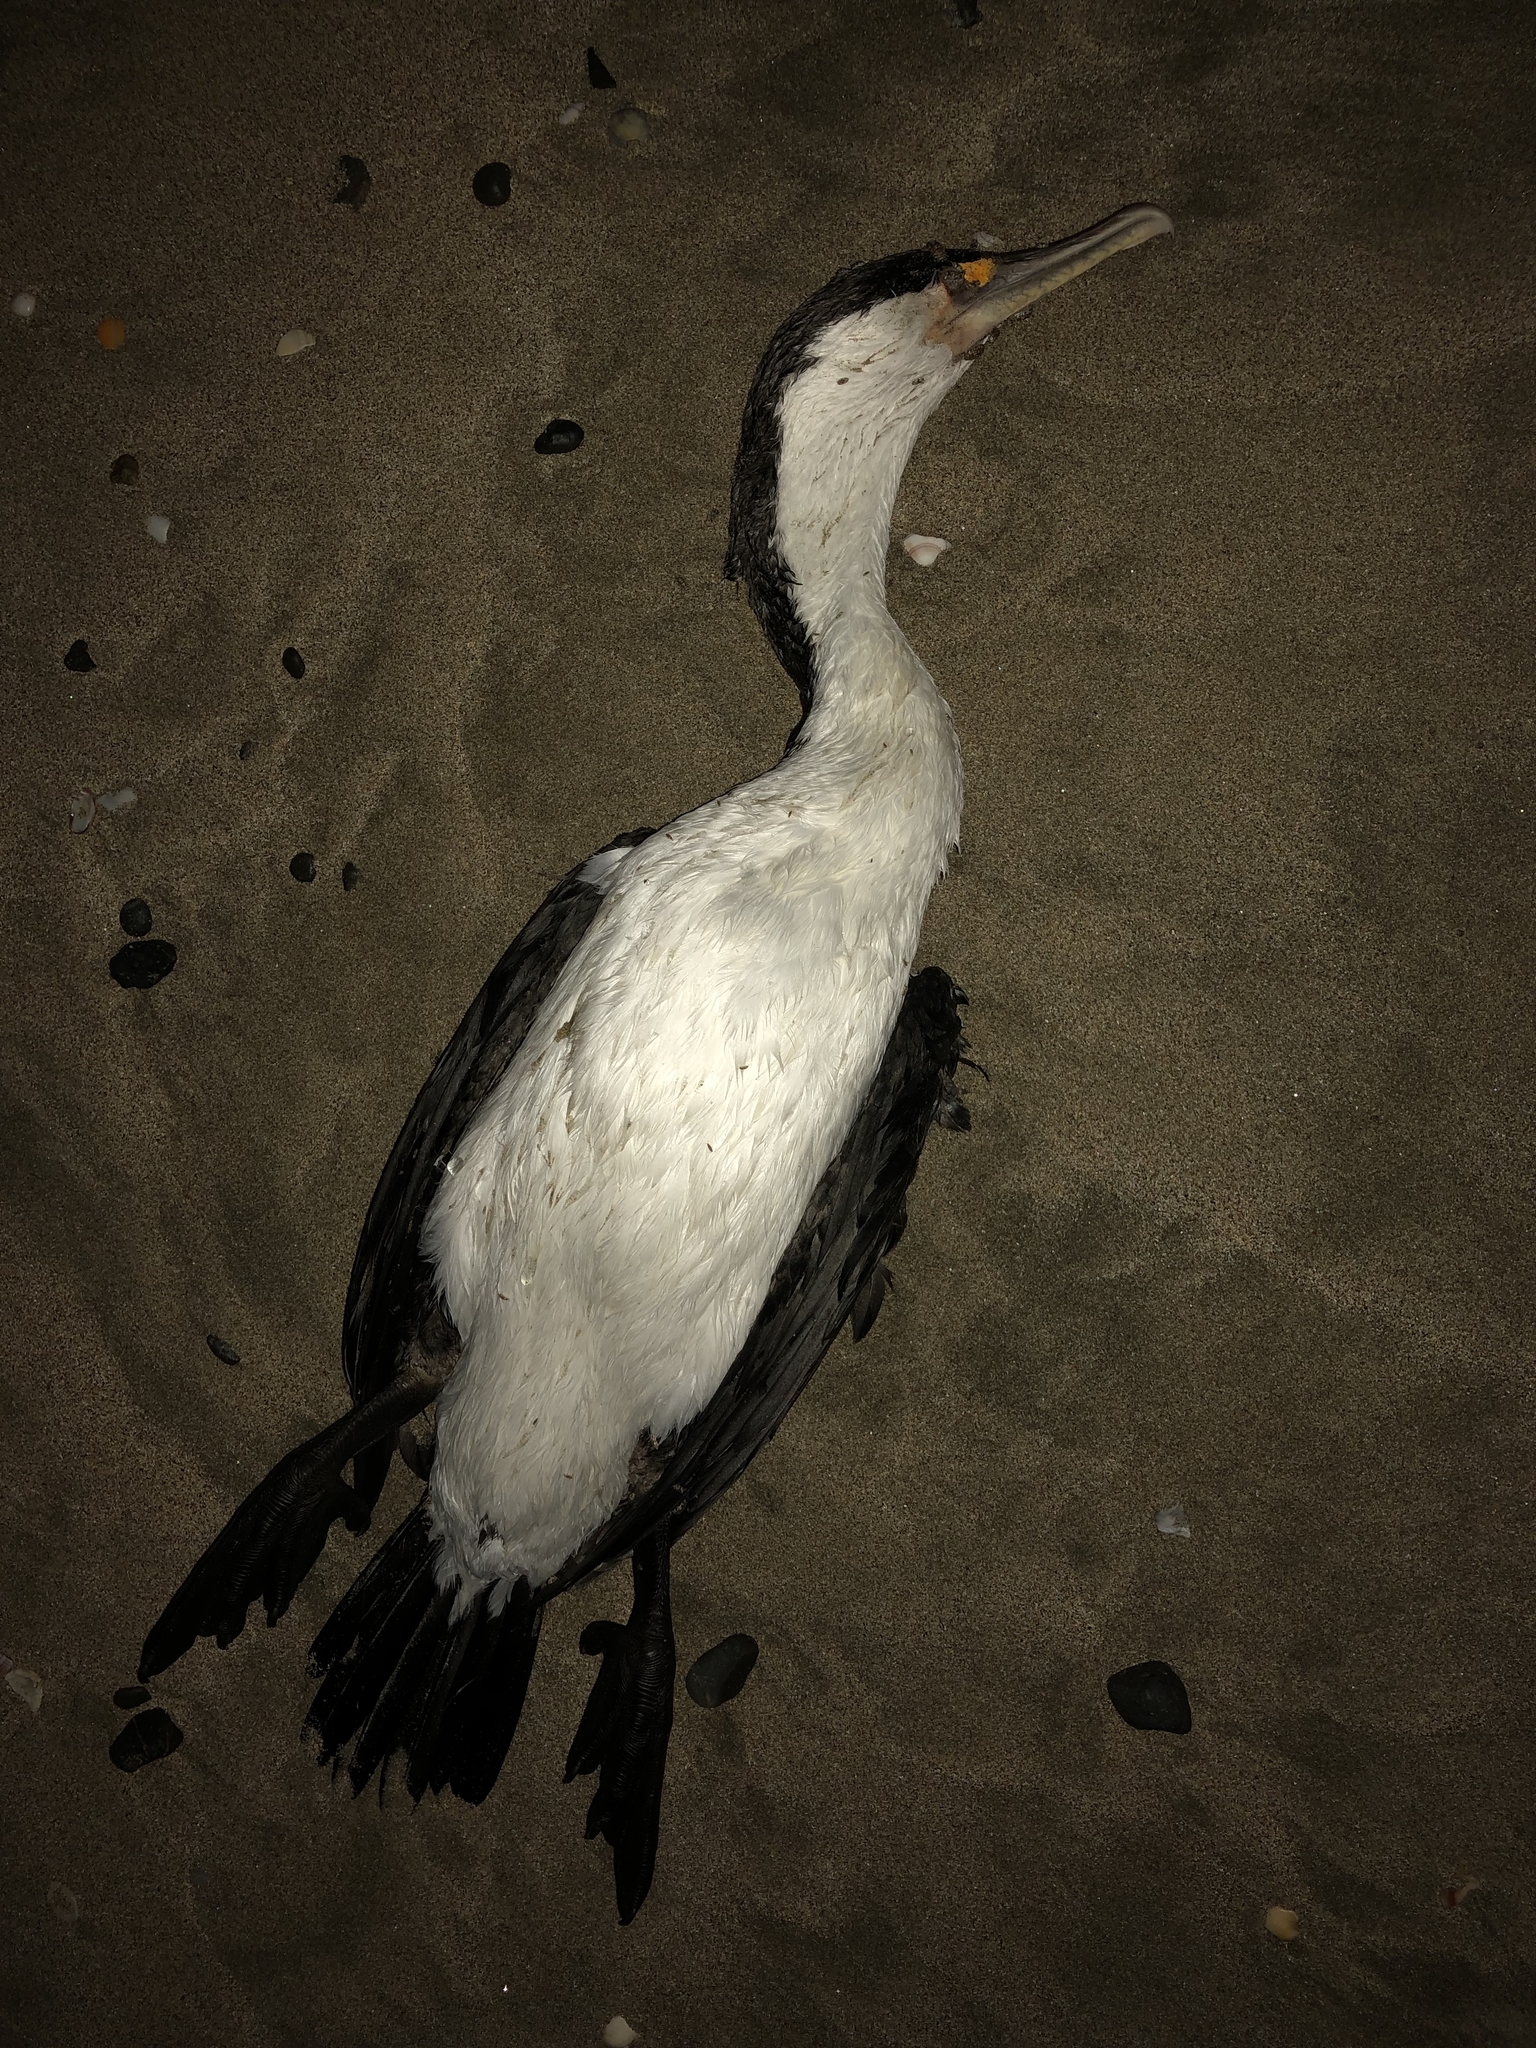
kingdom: Animalia
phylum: Chordata
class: Aves
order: Suliformes
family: Phalacrocoracidae
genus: Phalacrocorax
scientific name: Phalacrocorax varius
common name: Pied cormorant
